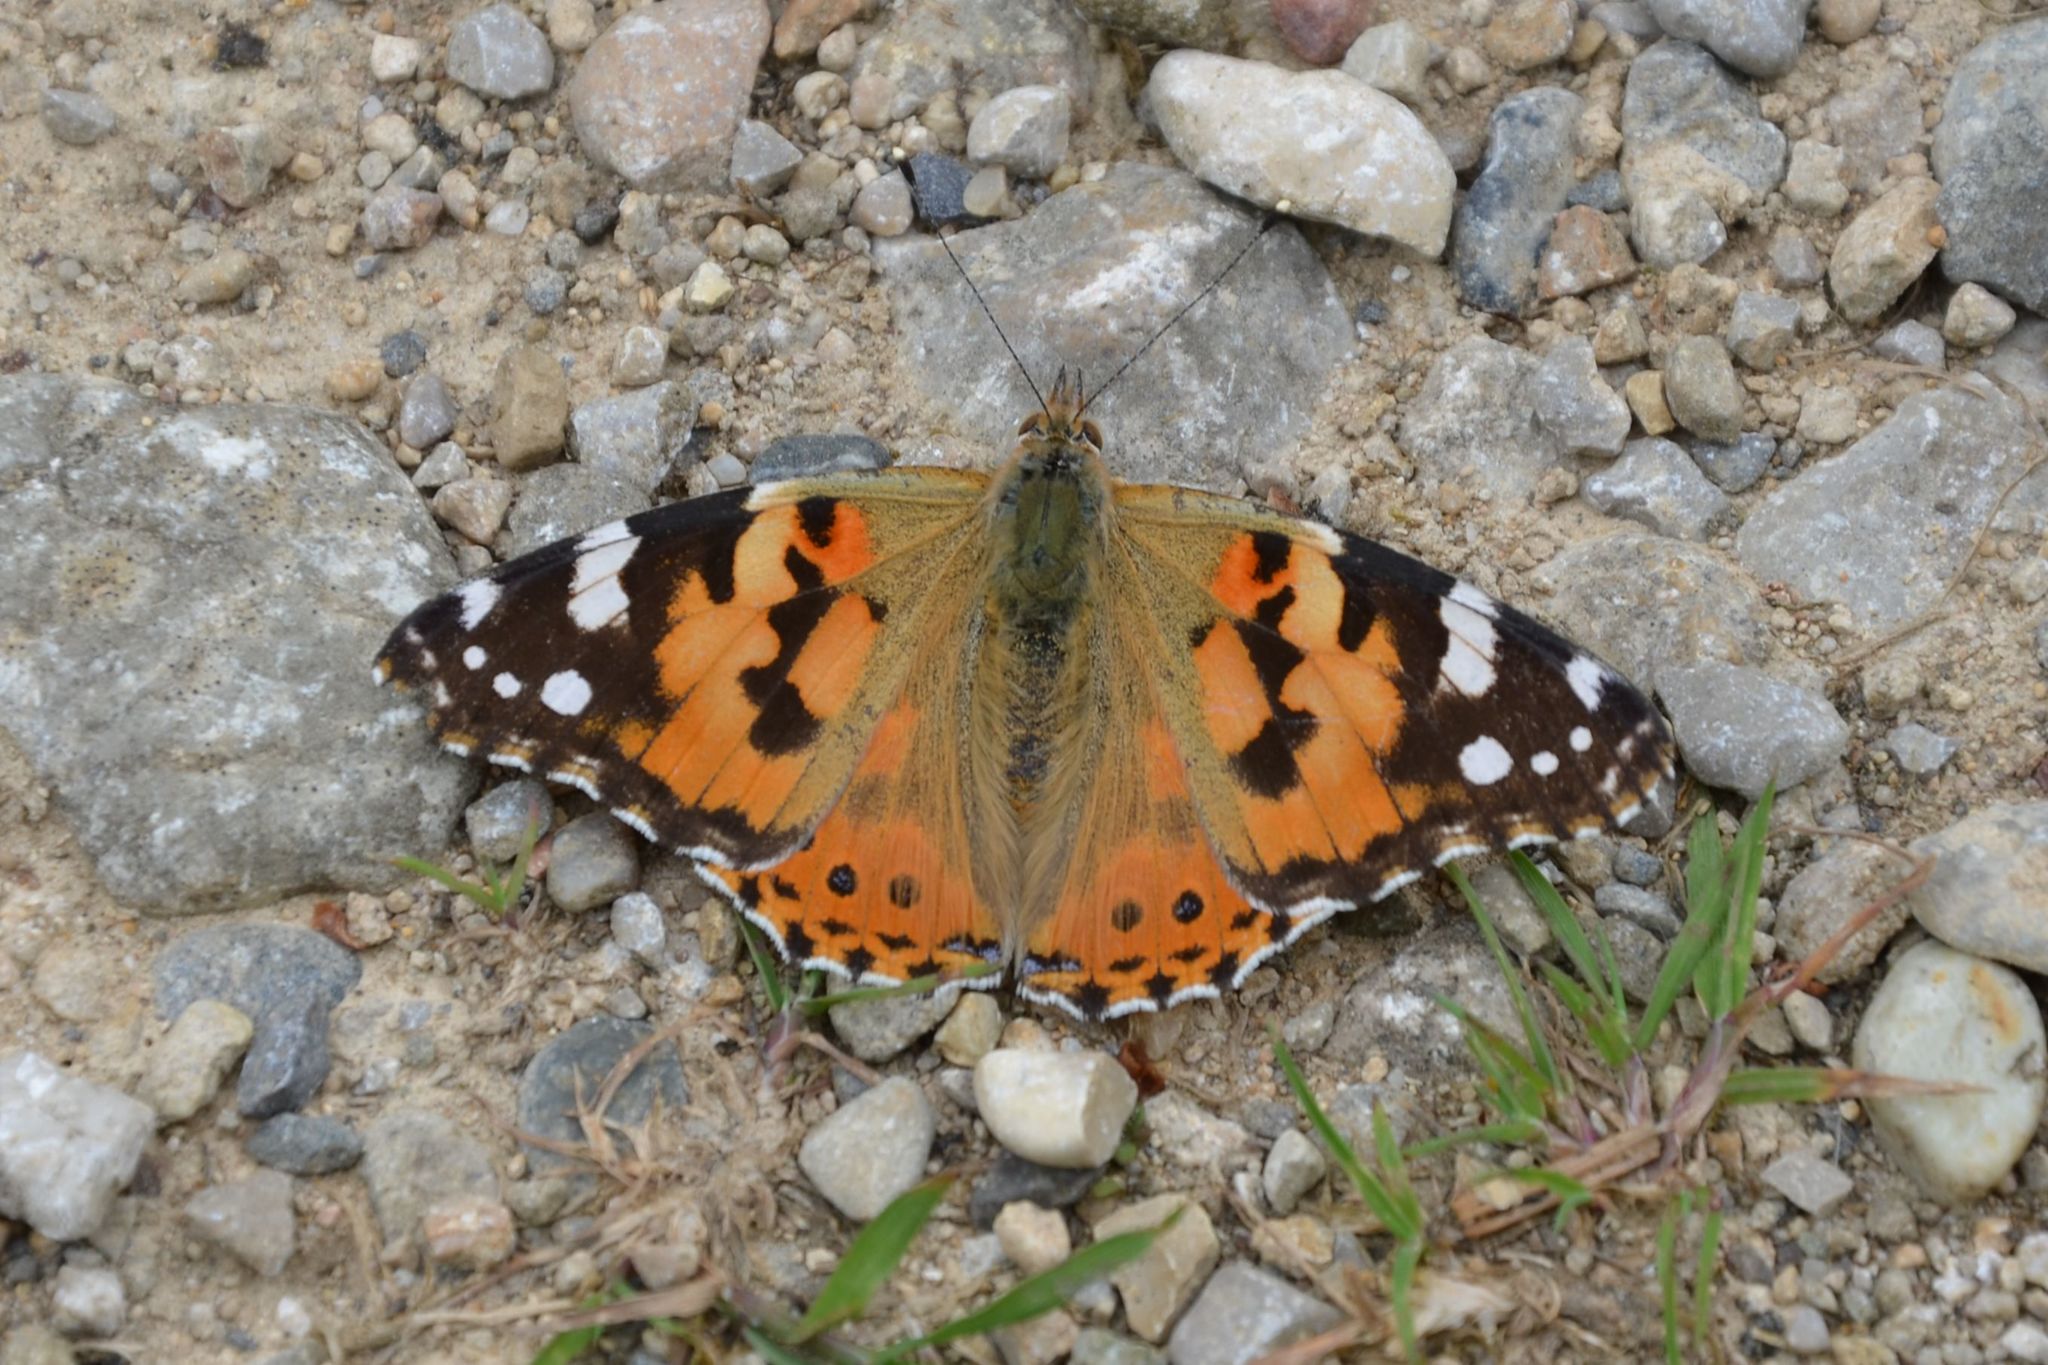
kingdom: Animalia
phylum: Arthropoda
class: Insecta
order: Lepidoptera
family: Nymphalidae
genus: Vanessa
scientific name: Vanessa cardui
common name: Painted lady
